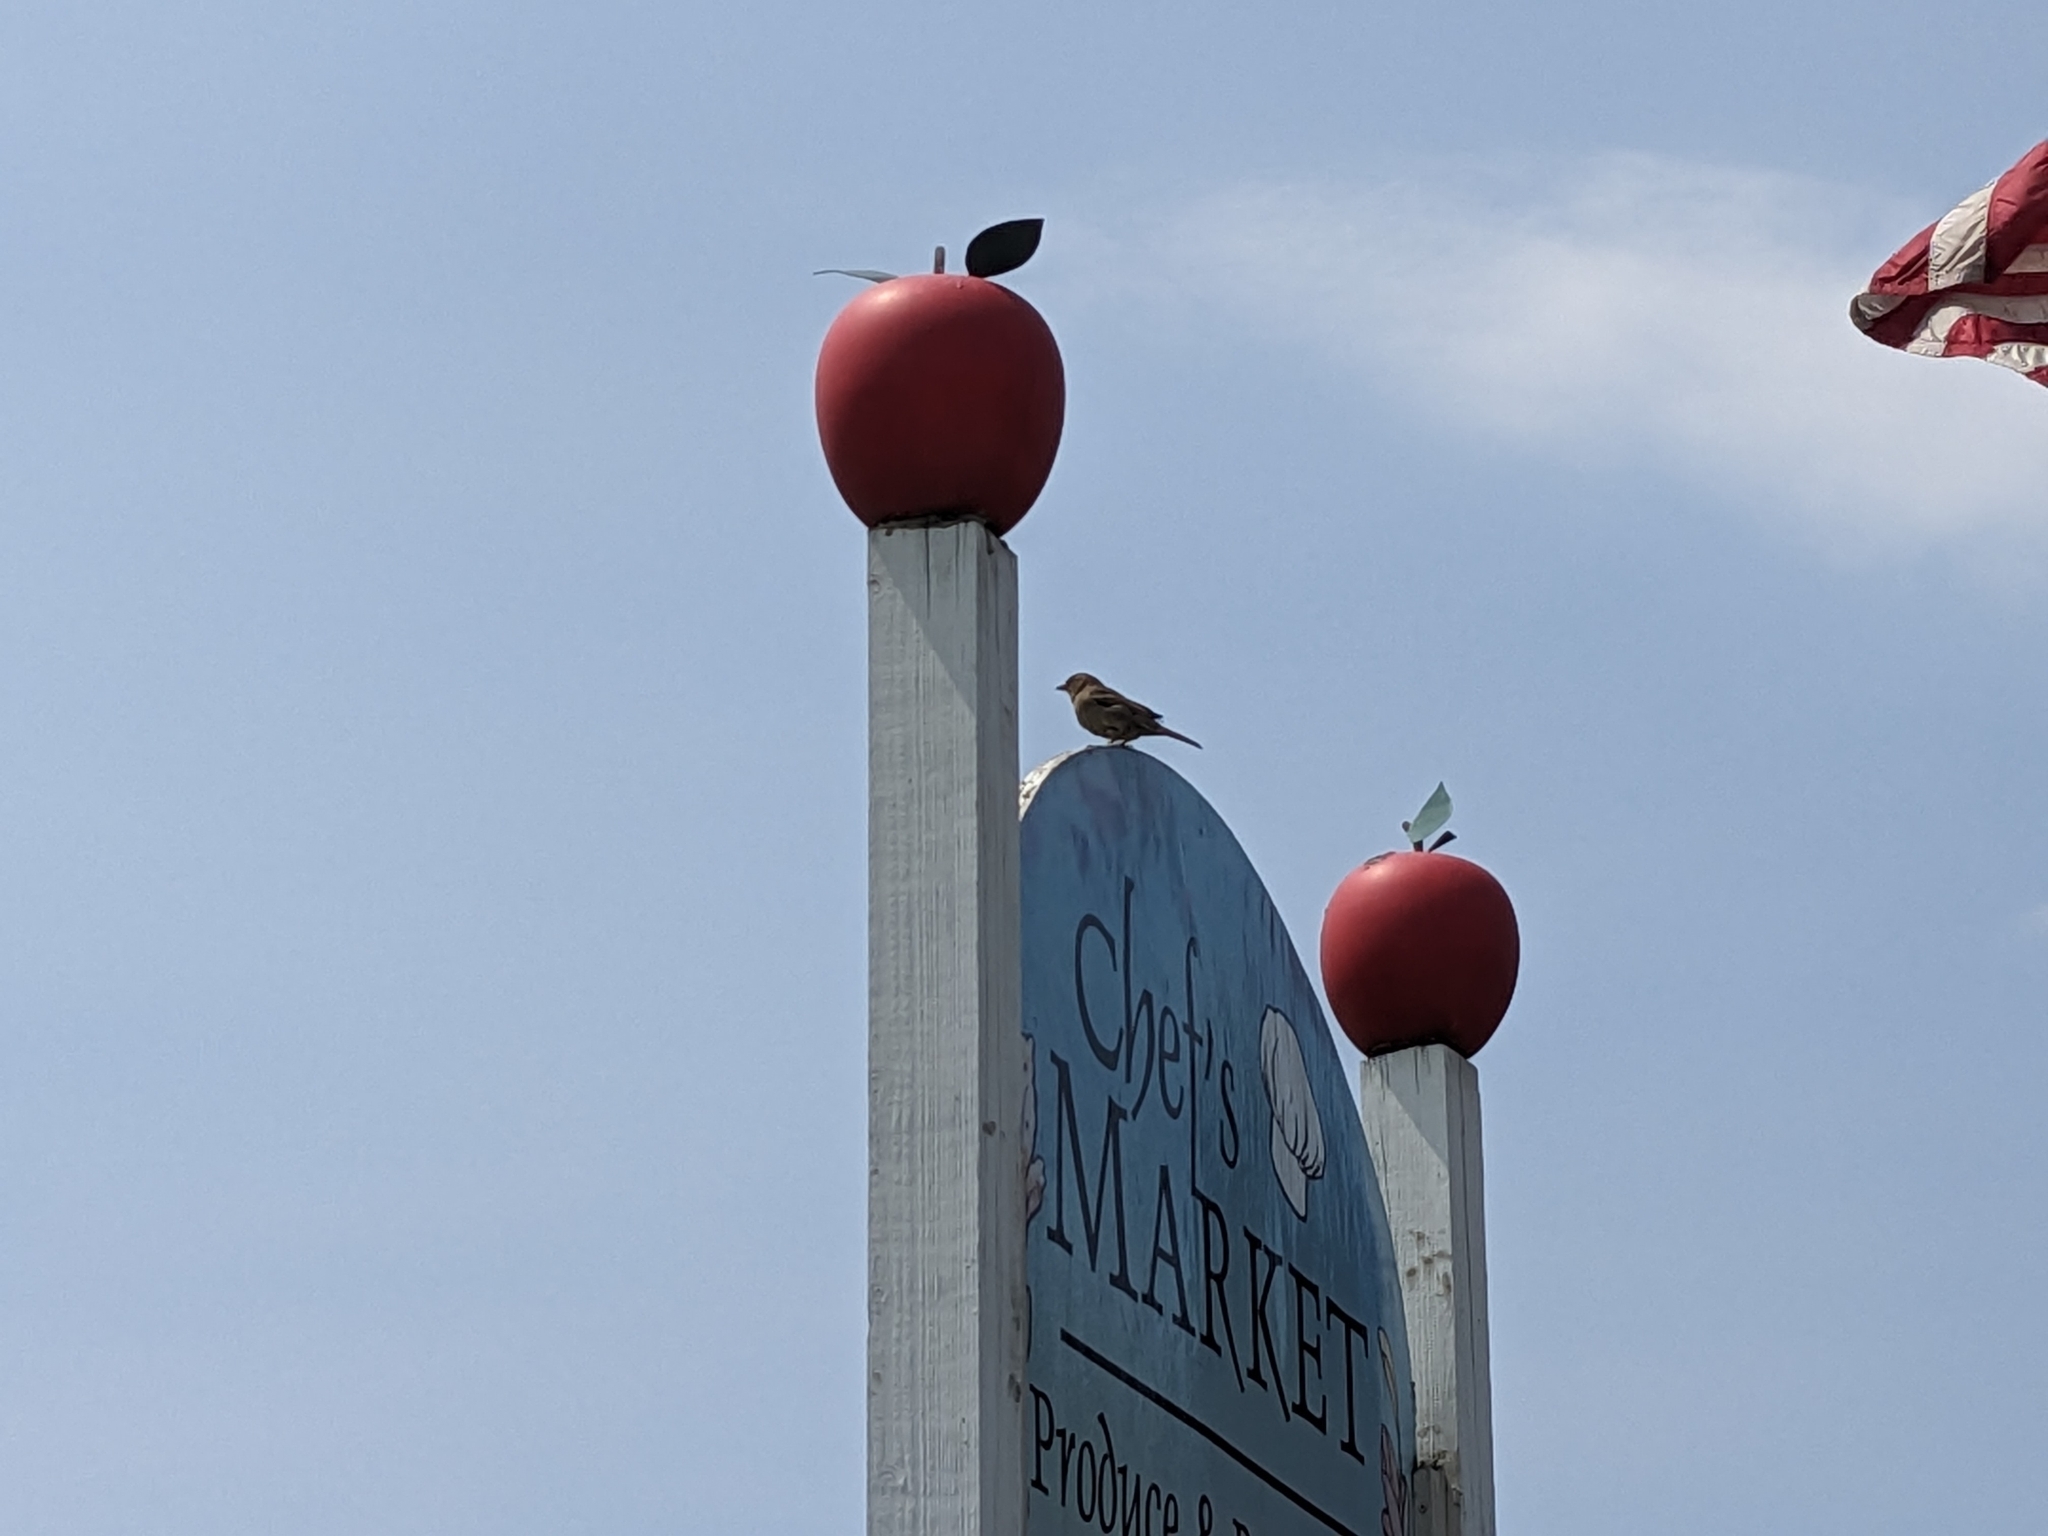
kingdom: Animalia
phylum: Chordata
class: Aves
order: Passeriformes
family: Passeridae
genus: Passer
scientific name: Passer domesticus
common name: House sparrow
